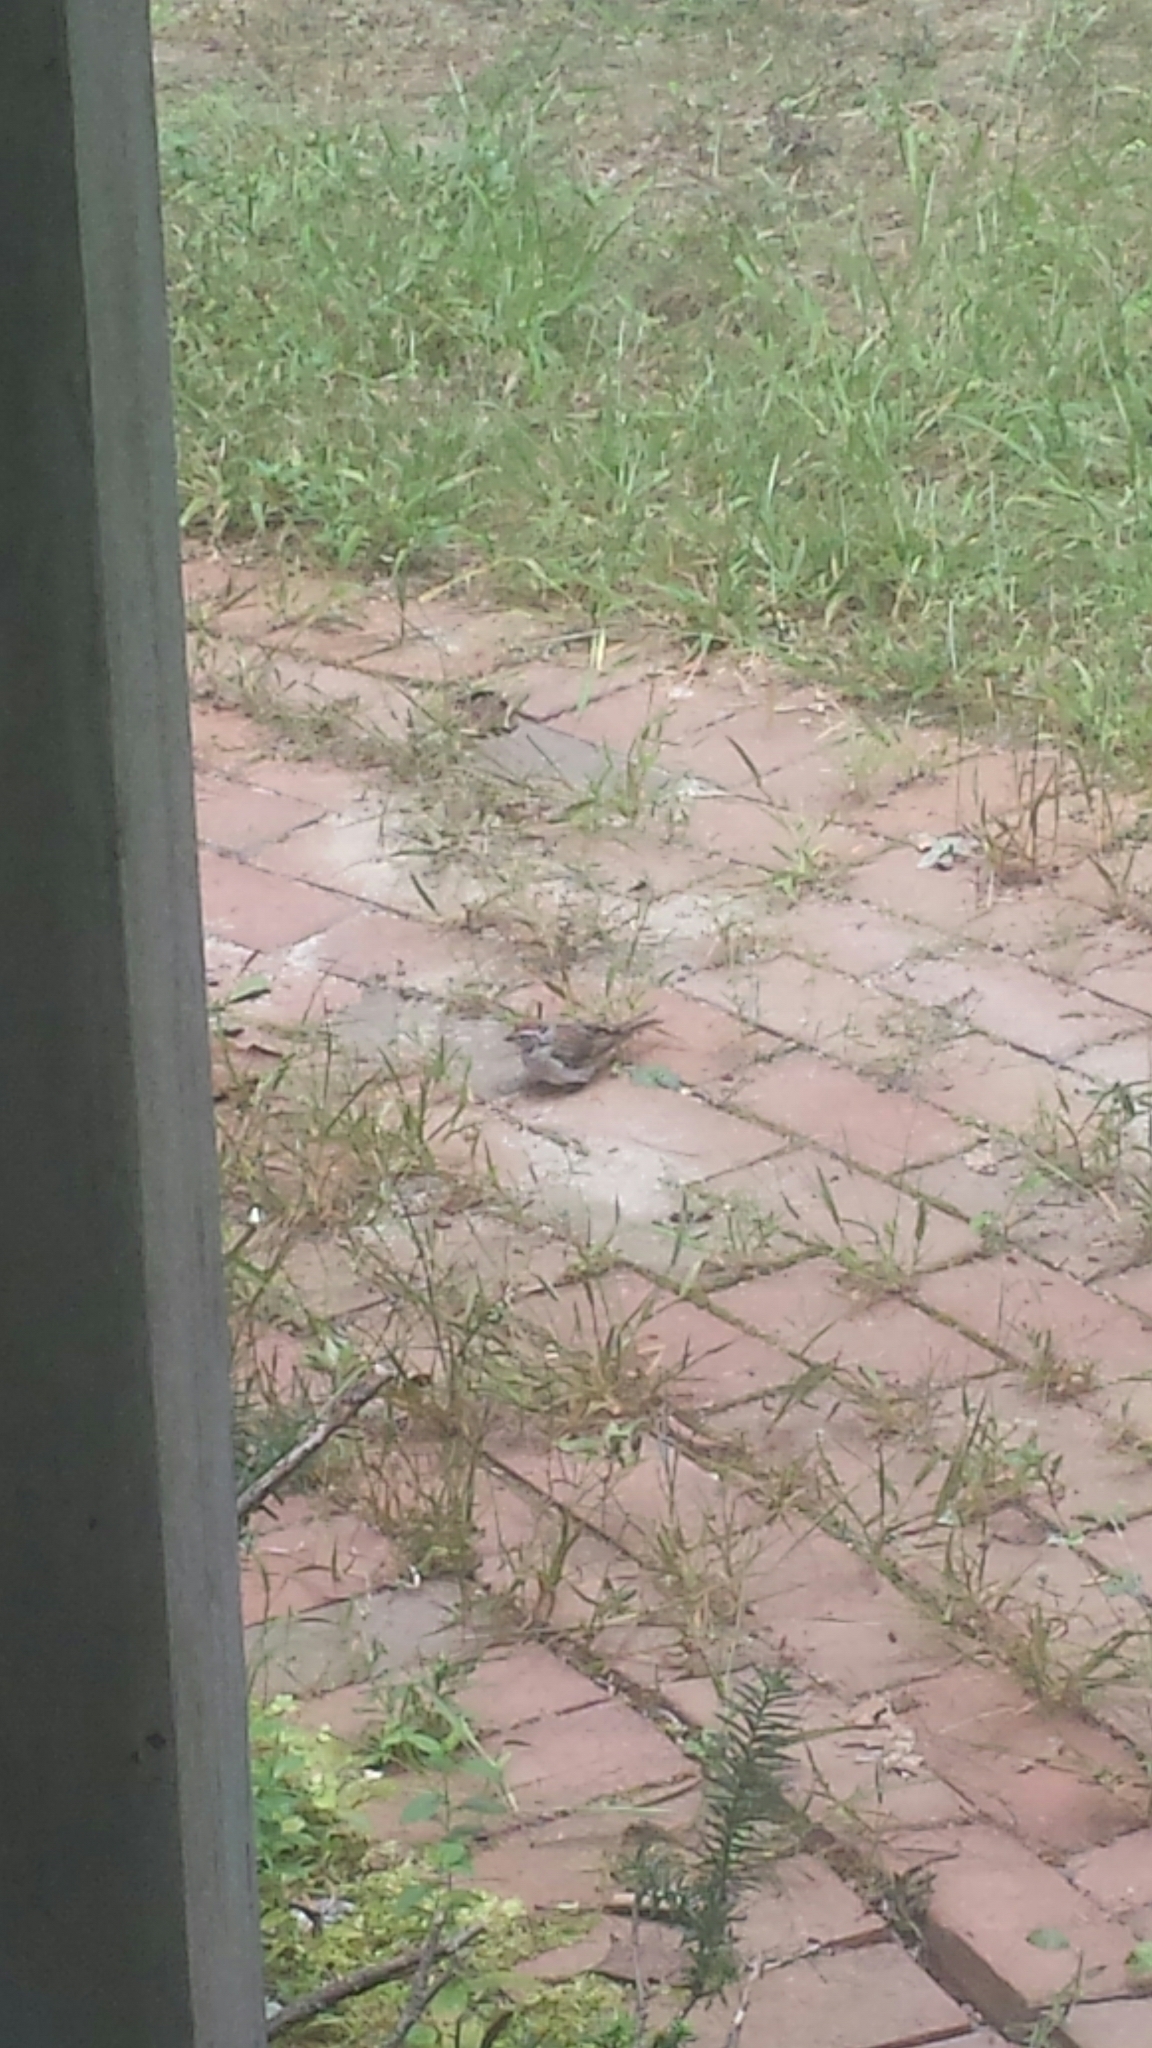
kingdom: Animalia
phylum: Chordata
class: Aves
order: Passeriformes
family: Passerellidae
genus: Spizella
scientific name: Spizella passerina
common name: Chipping sparrow
